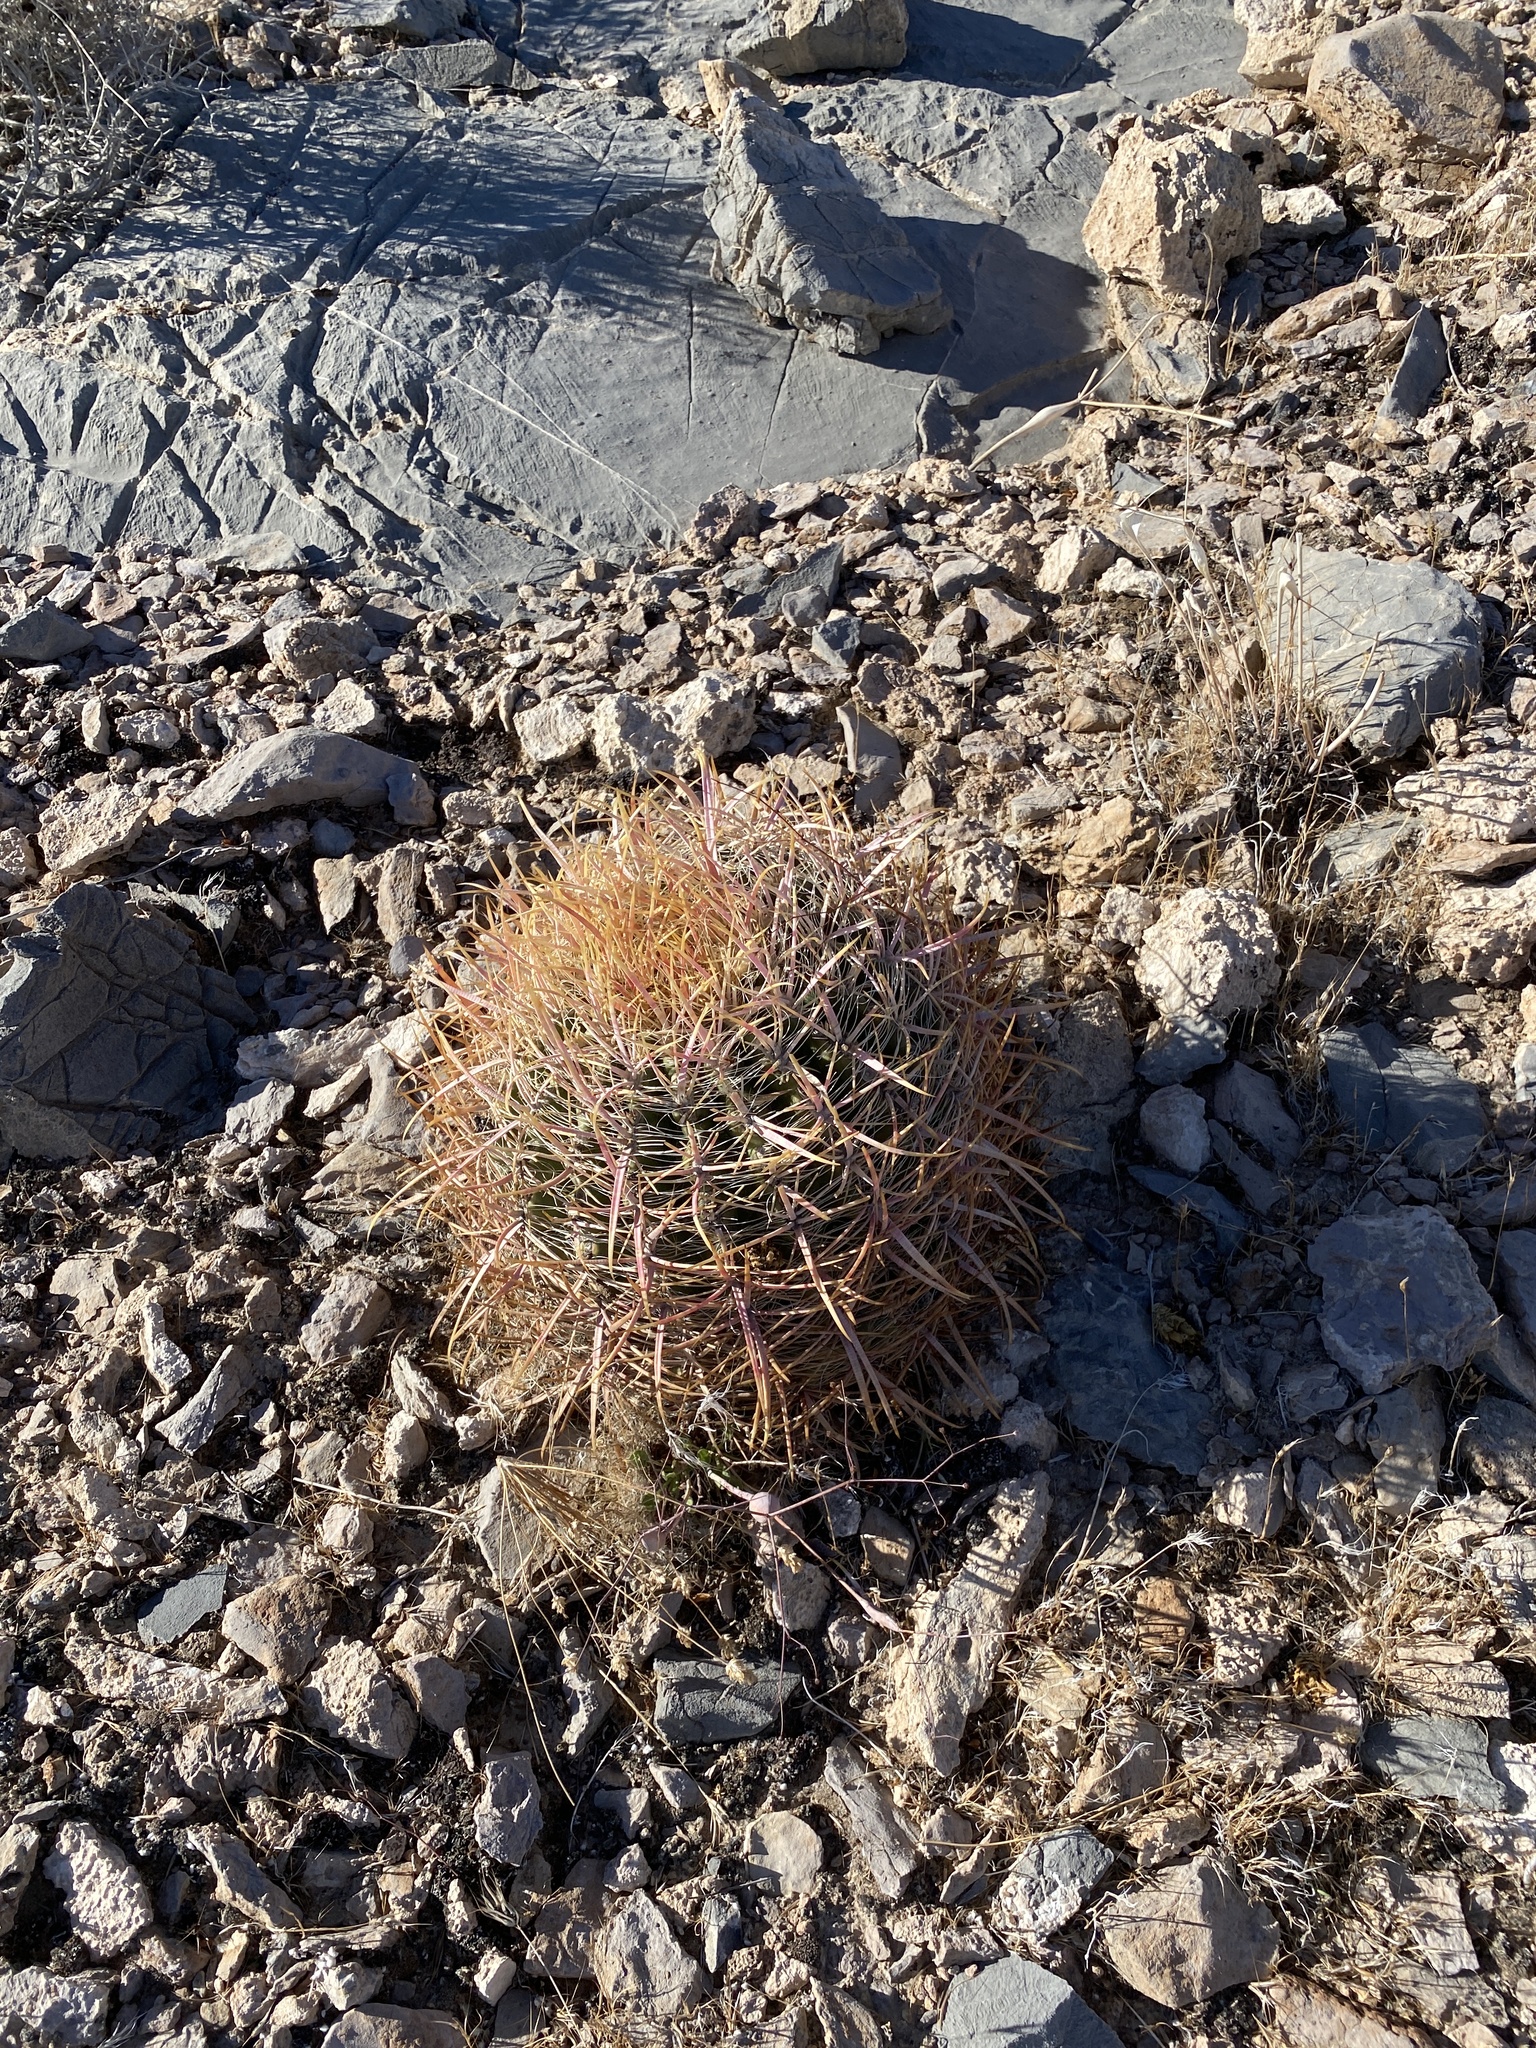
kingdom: Plantae
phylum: Tracheophyta
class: Magnoliopsida
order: Caryophyllales
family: Cactaceae
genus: Ferocactus
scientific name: Ferocactus cylindraceus
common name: California barrel cactus
